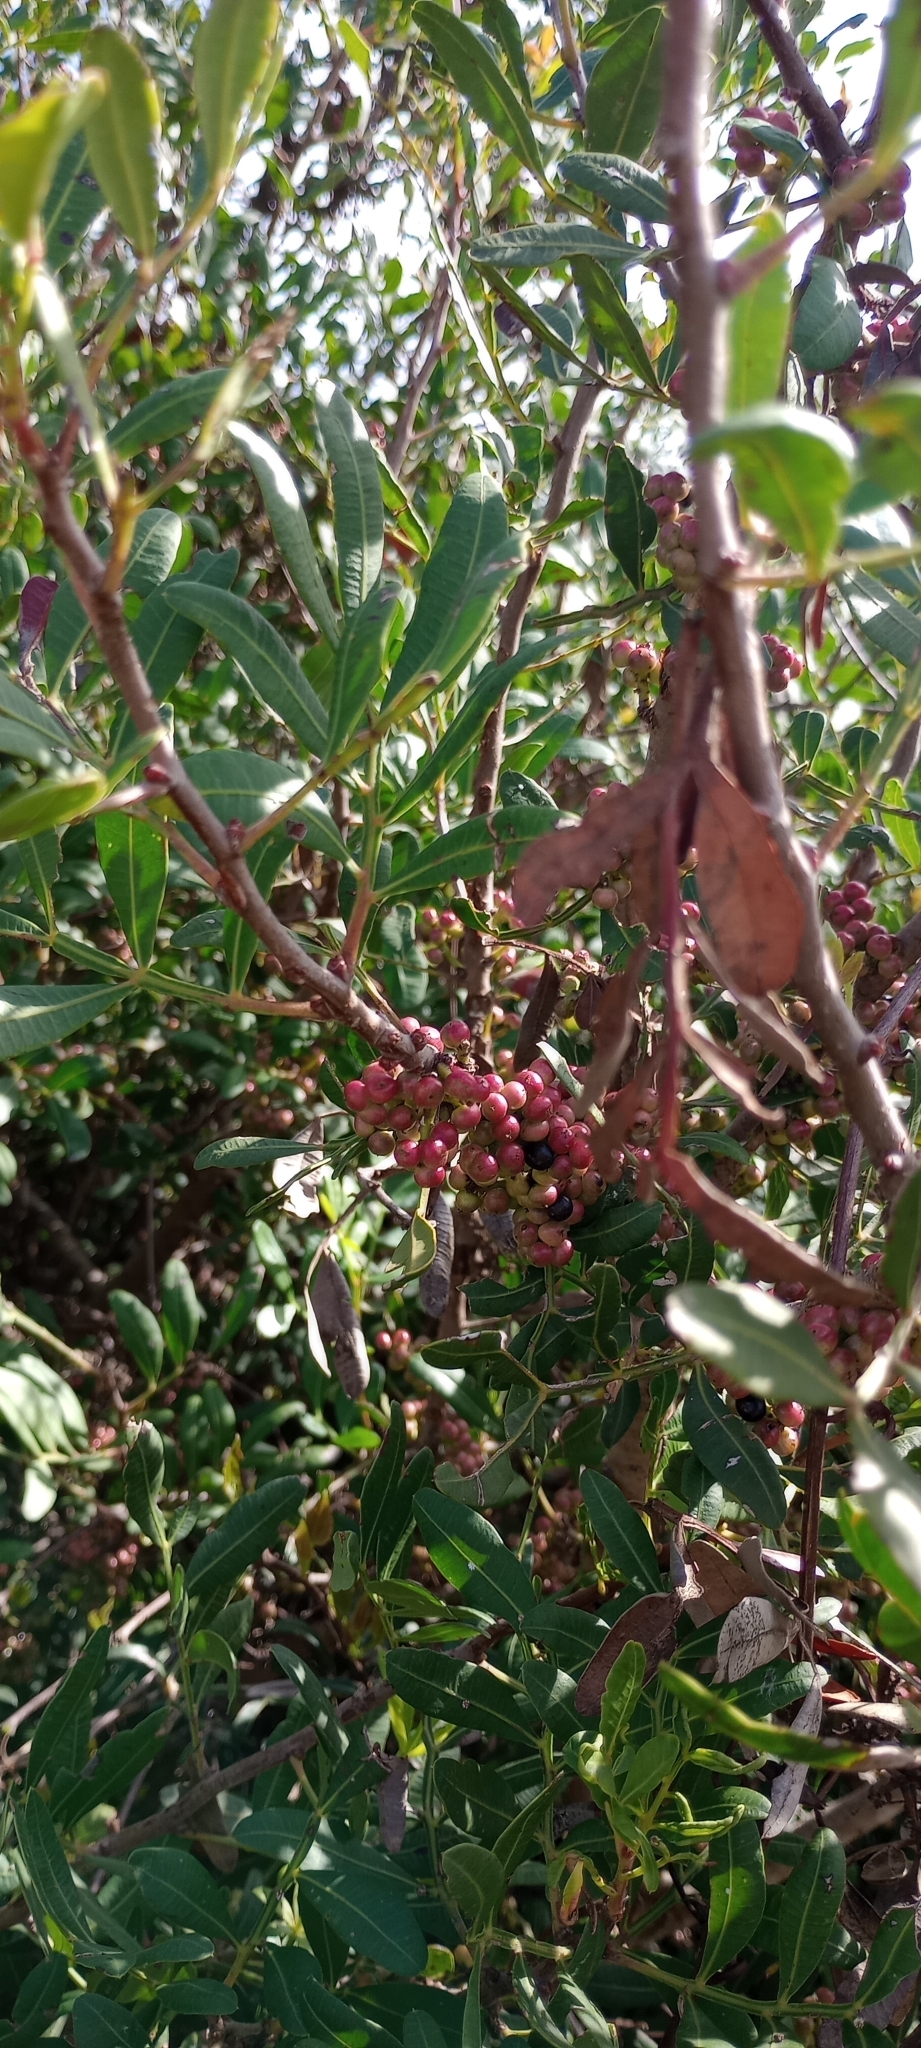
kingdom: Plantae
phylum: Tracheophyta
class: Magnoliopsida
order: Sapindales
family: Anacardiaceae
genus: Pistacia
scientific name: Pistacia lentiscus
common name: Lentisk
